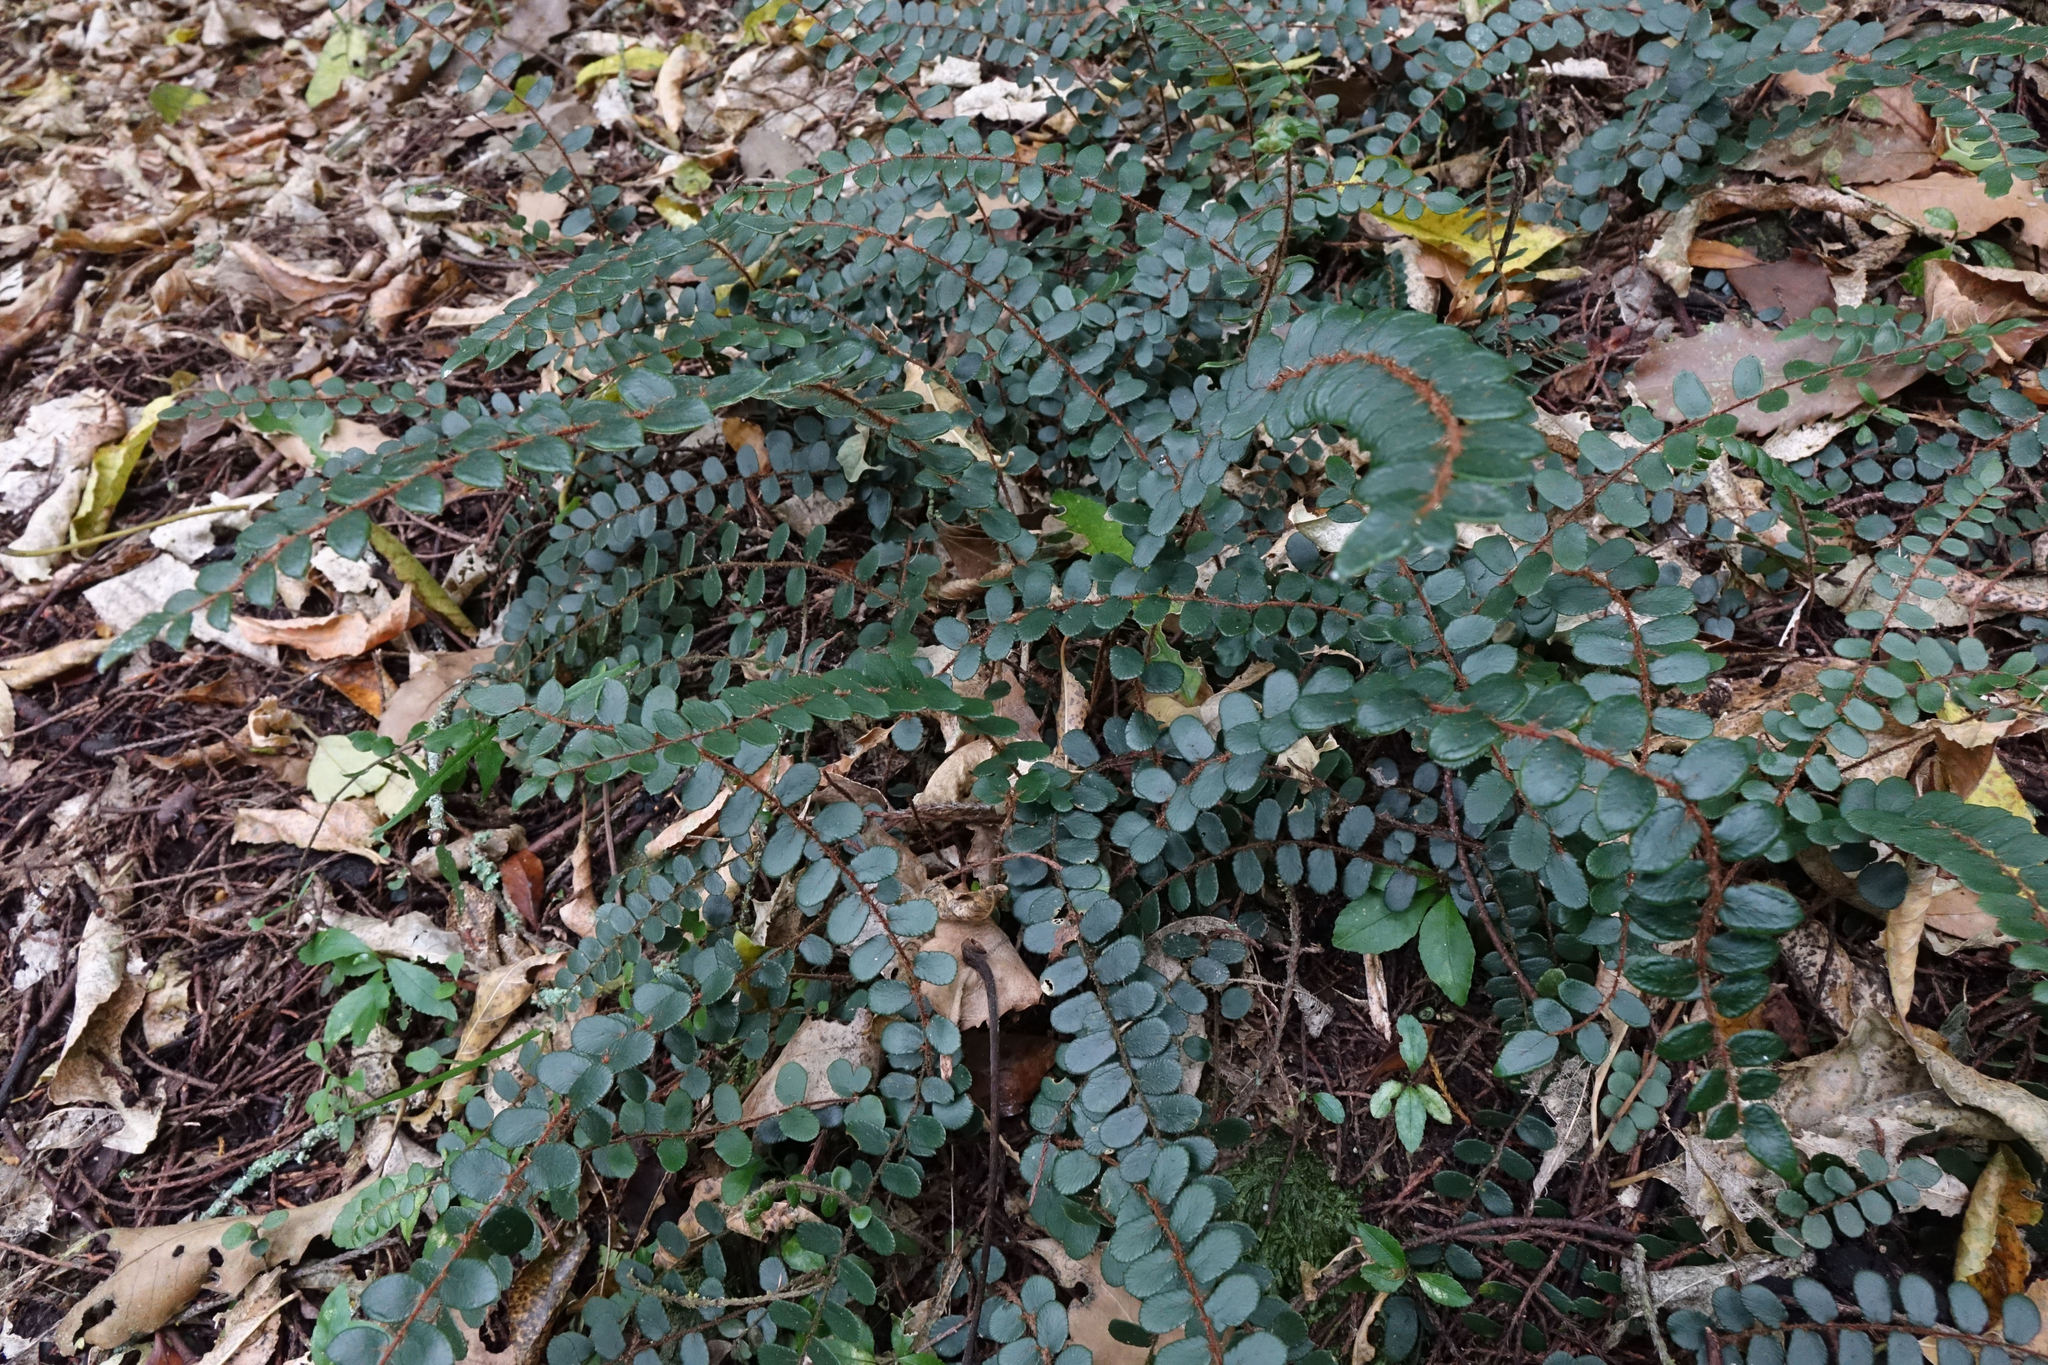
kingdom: Plantae
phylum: Tracheophyta
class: Polypodiopsida
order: Polypodiales
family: Pteridaceae
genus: Pellaea
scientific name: Pellaea rotundifolia
